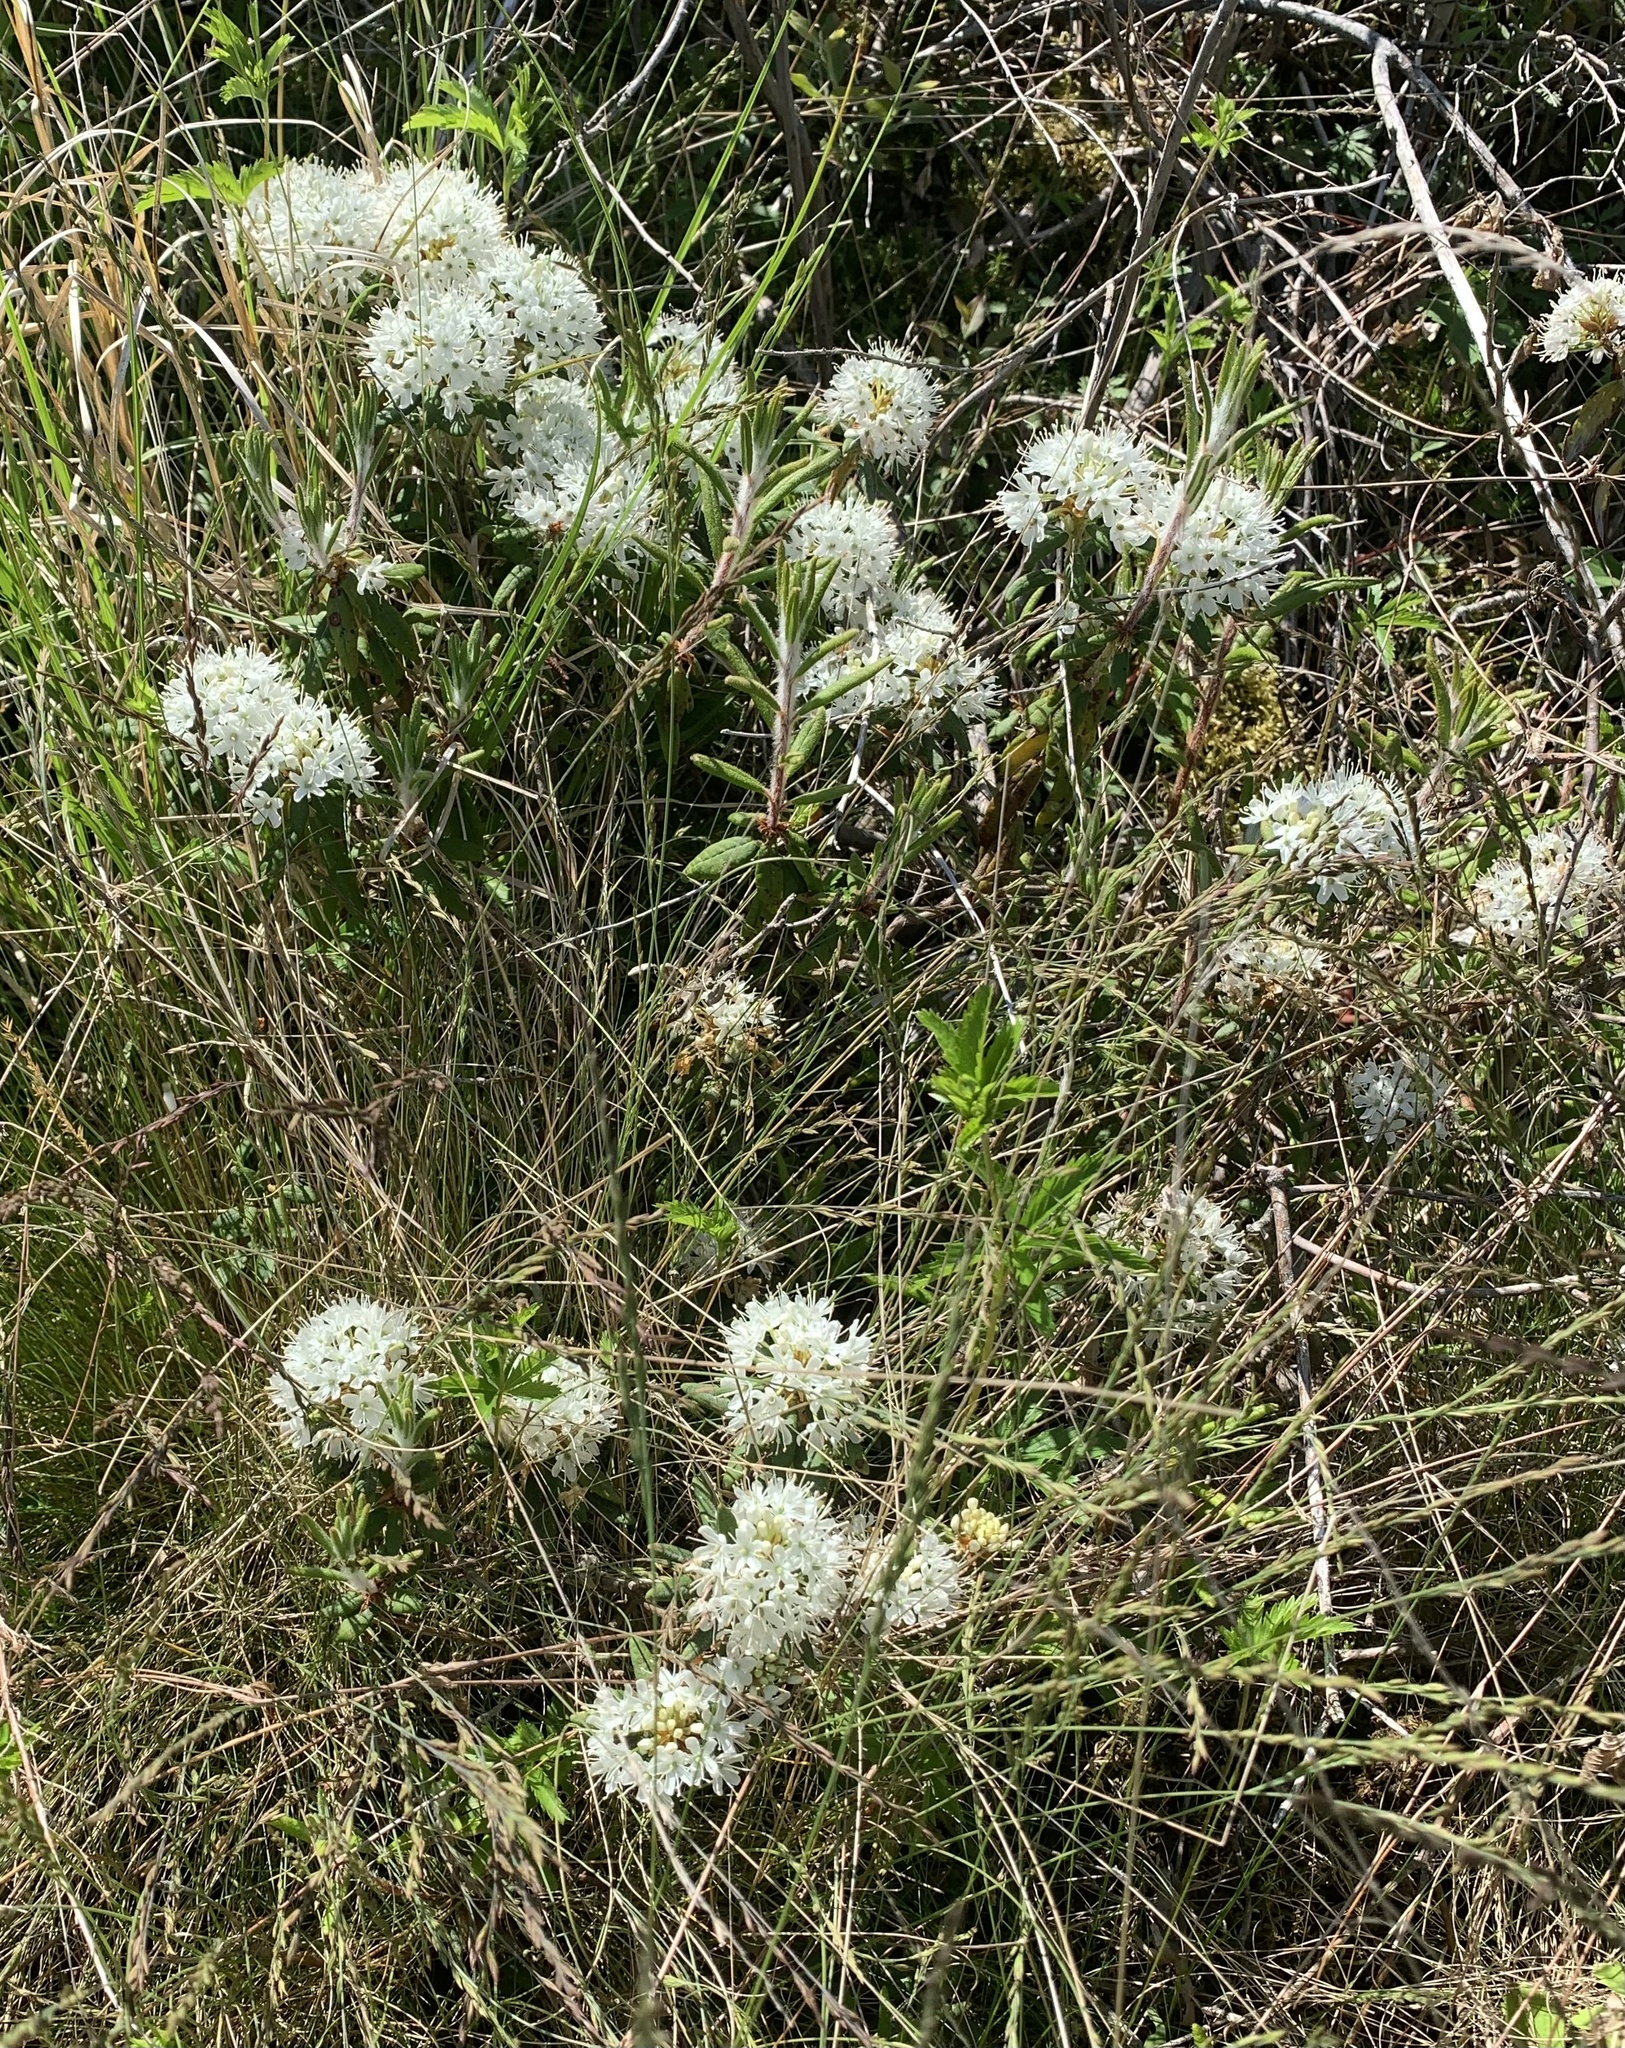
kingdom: Plantae
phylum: Tracheophyta
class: Magnoliopsida
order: Ericales
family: Ericaceae
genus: Rhododendron
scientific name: Rhododendron groenlandicum
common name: Bog labrador tea
